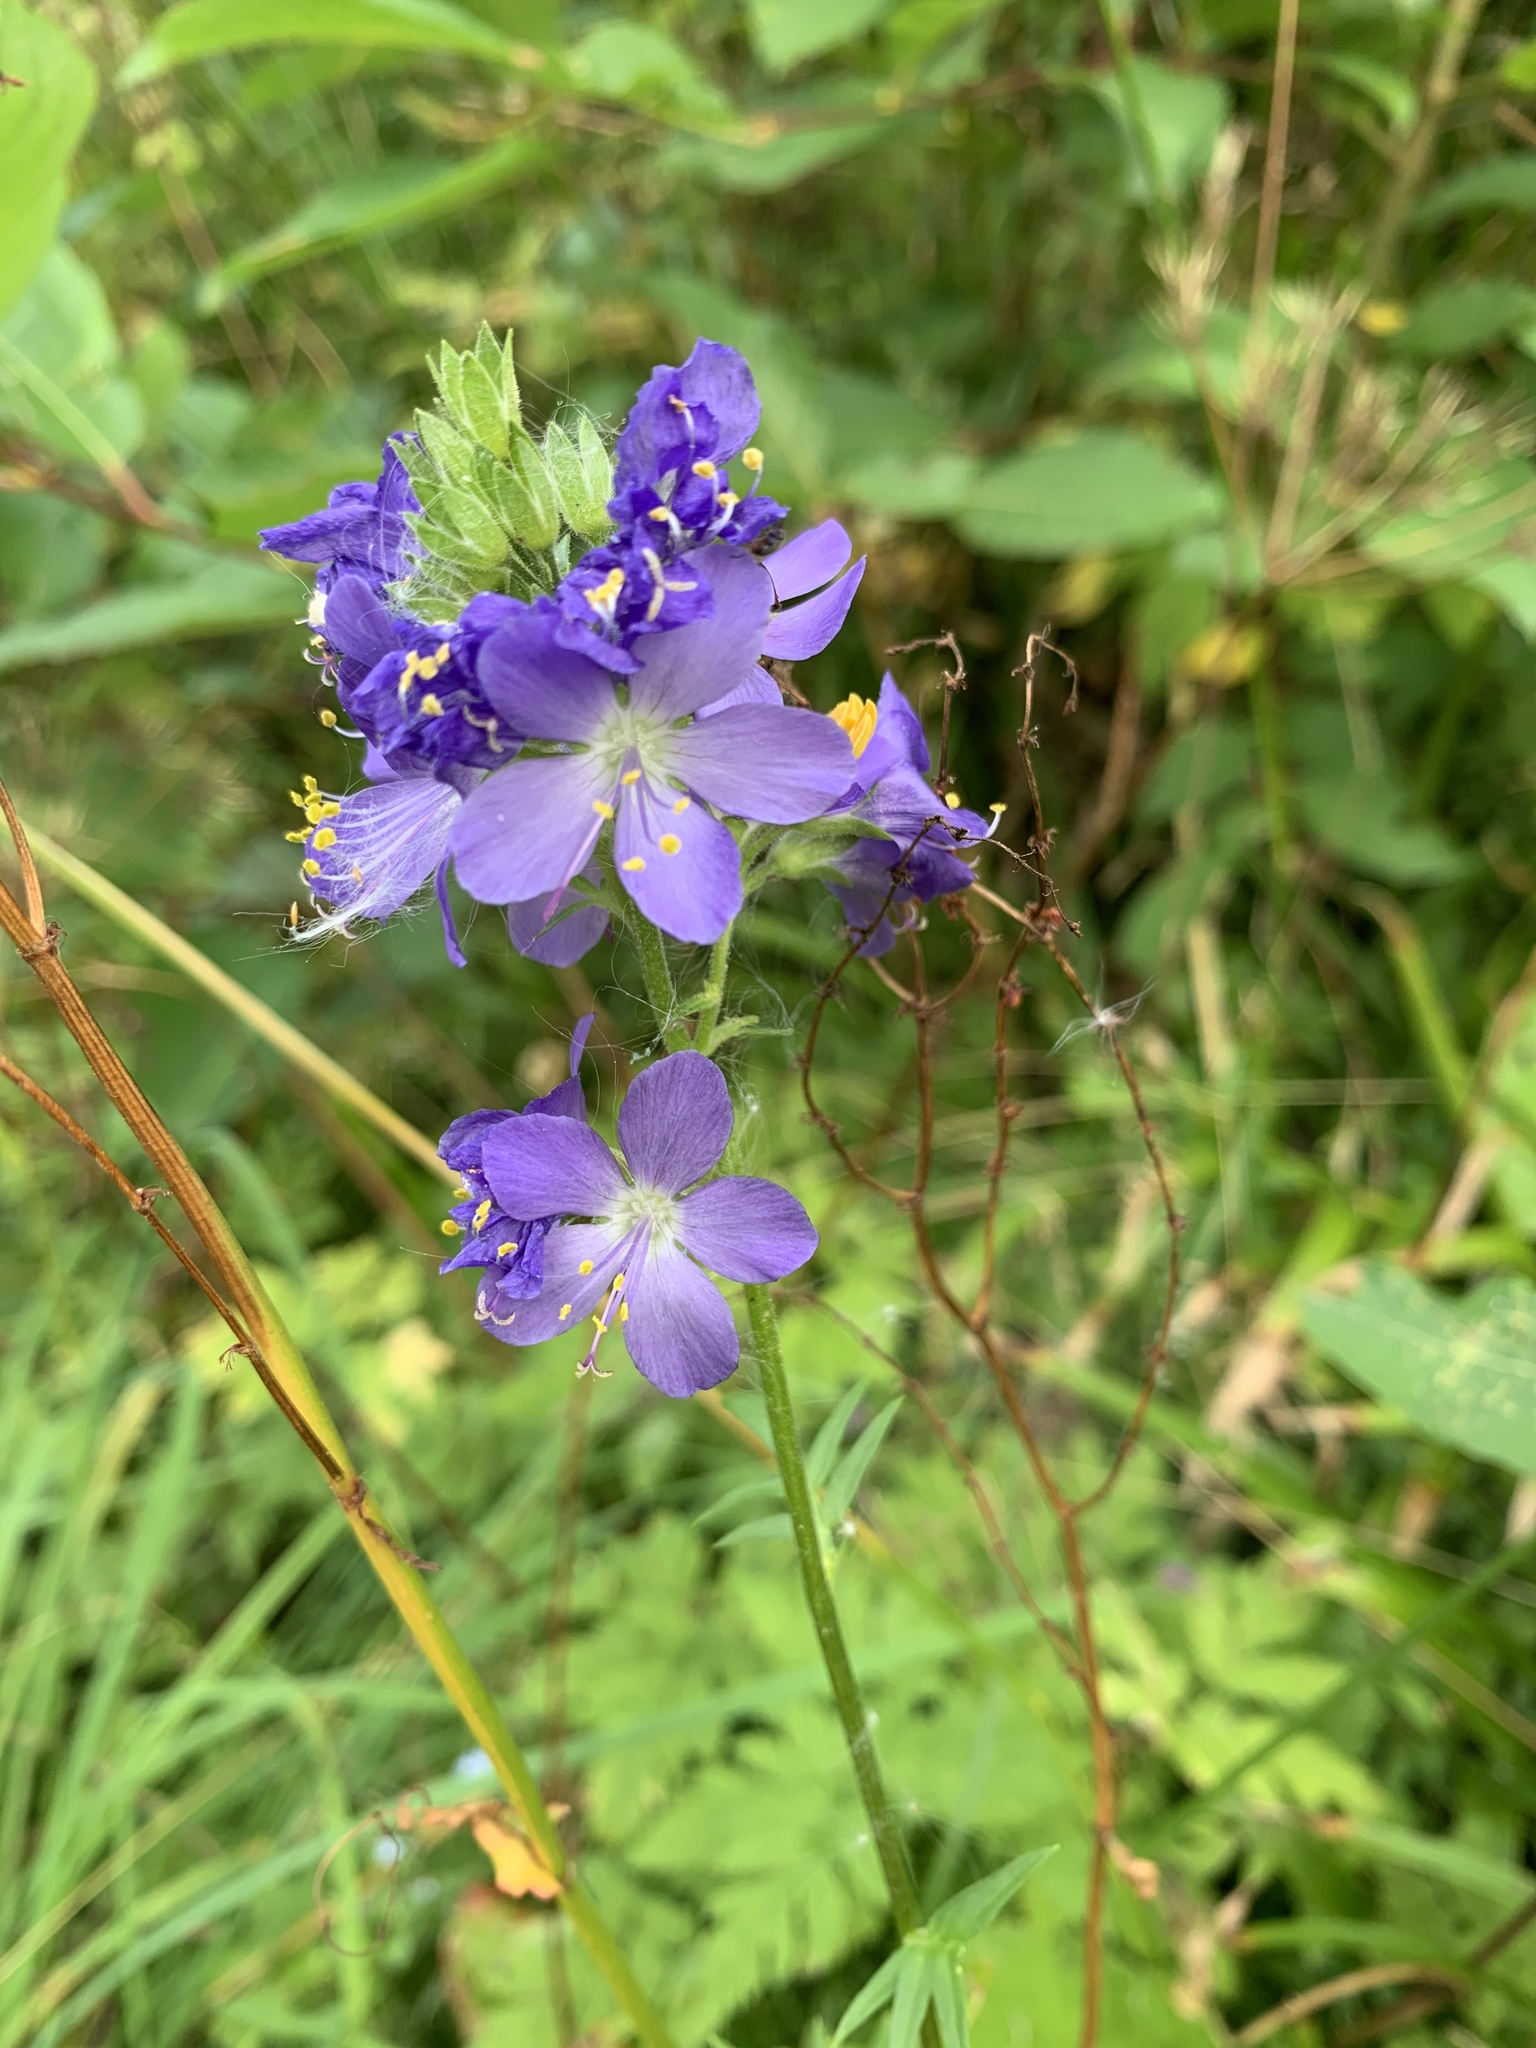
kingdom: Plantae
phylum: Tracheophyta
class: Magnoliopsida
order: Ericales
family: Polemoniaceae
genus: Polemonium
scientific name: Polemonium caeruleum
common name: Jacob's-ladder
